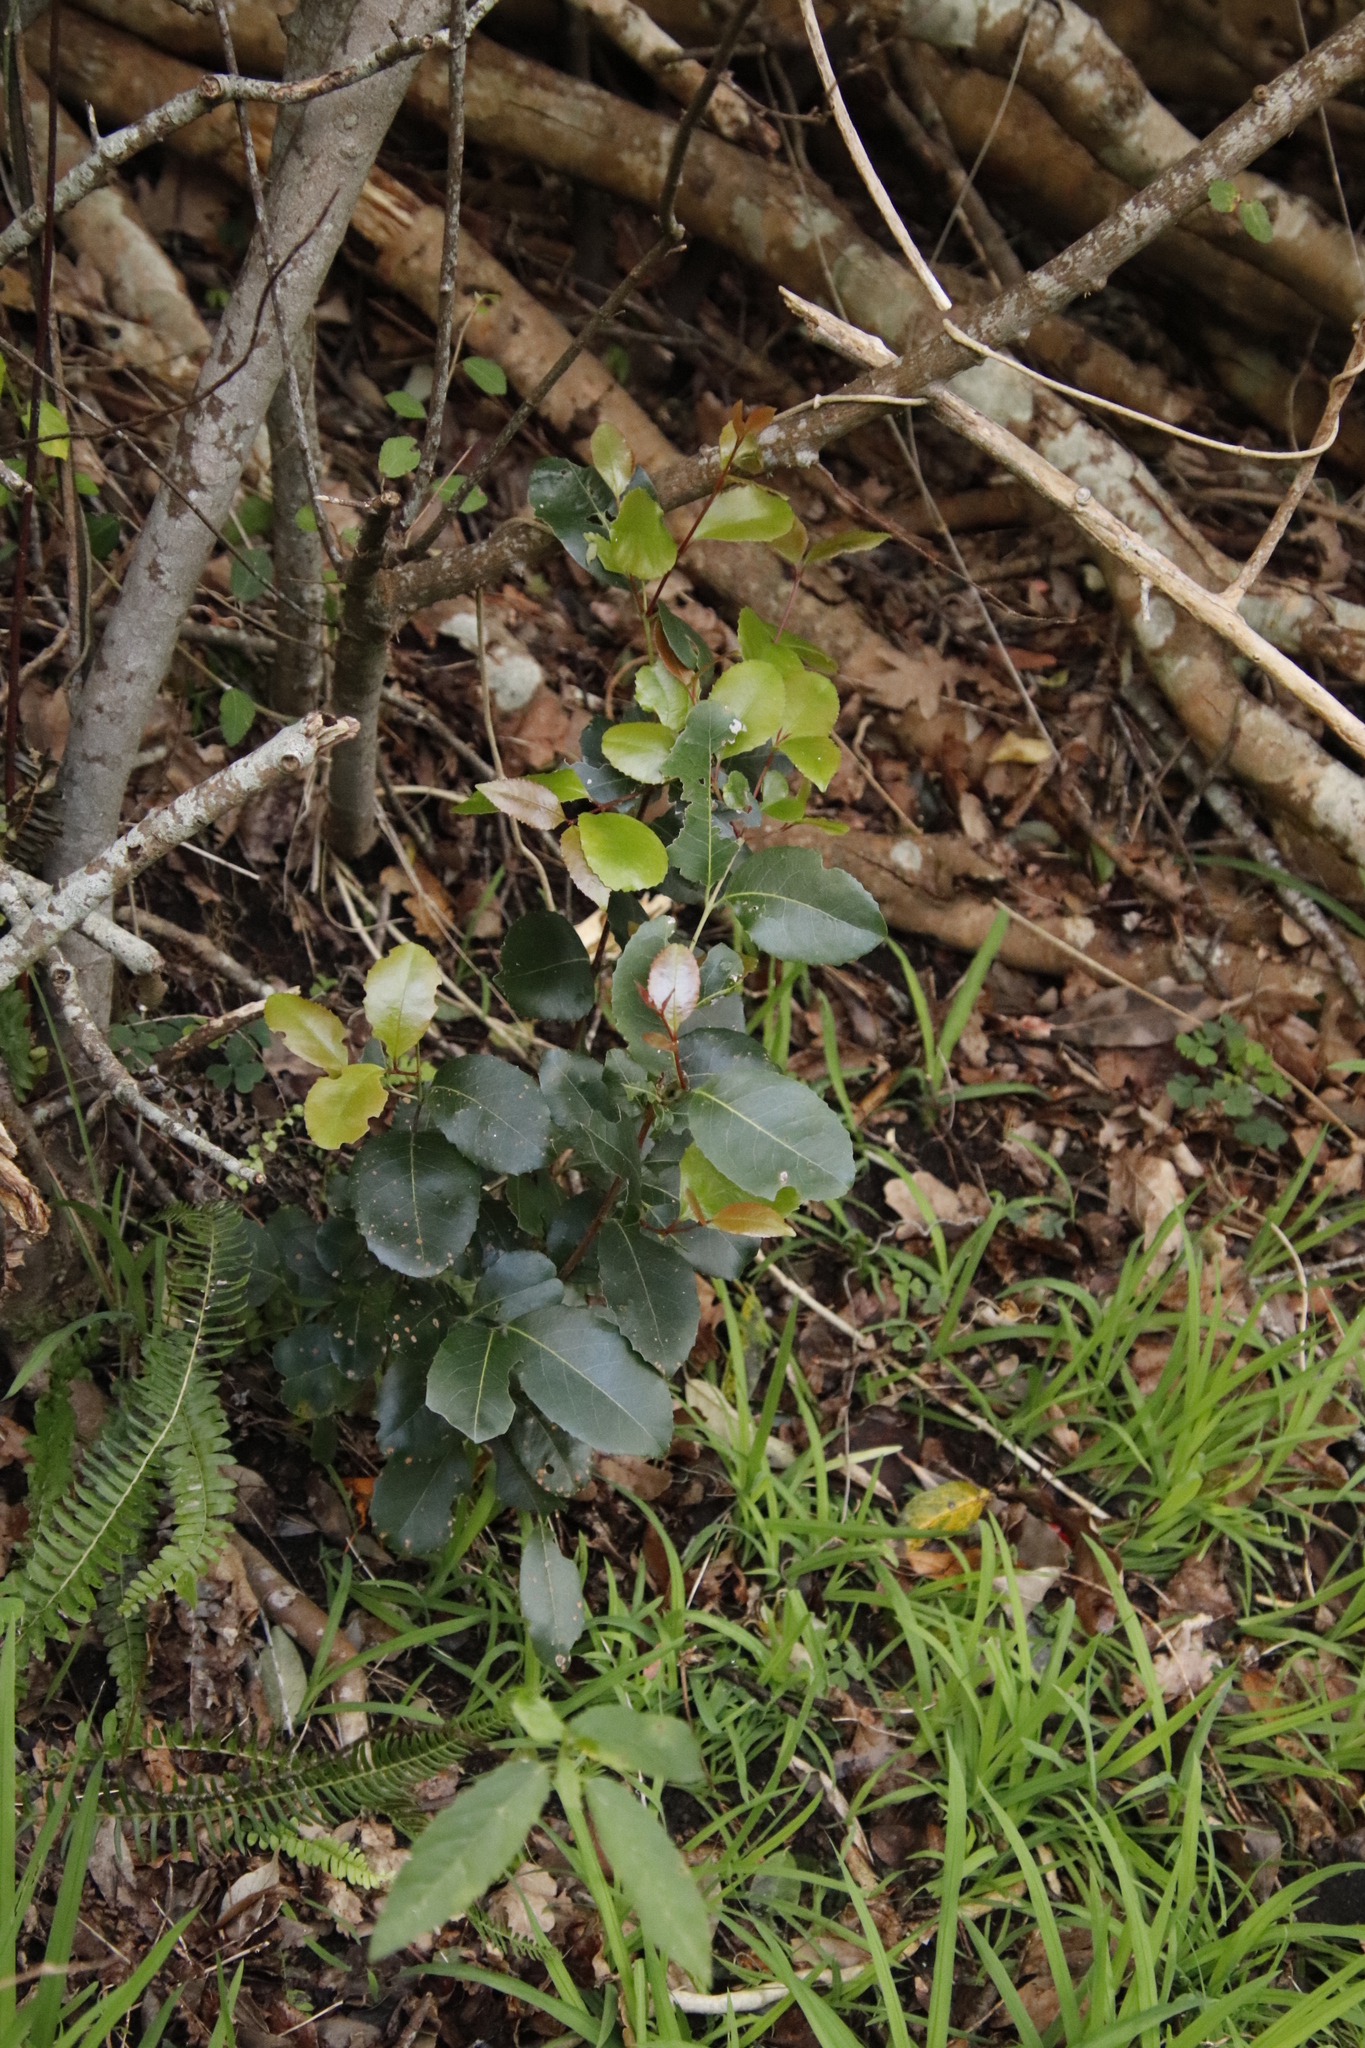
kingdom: Plantae
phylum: Tracheophyta
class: Magnoliopsida
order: Celastrales
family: Celastraceae
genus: Cassine
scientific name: Cassine peragua
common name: Cape saffron
